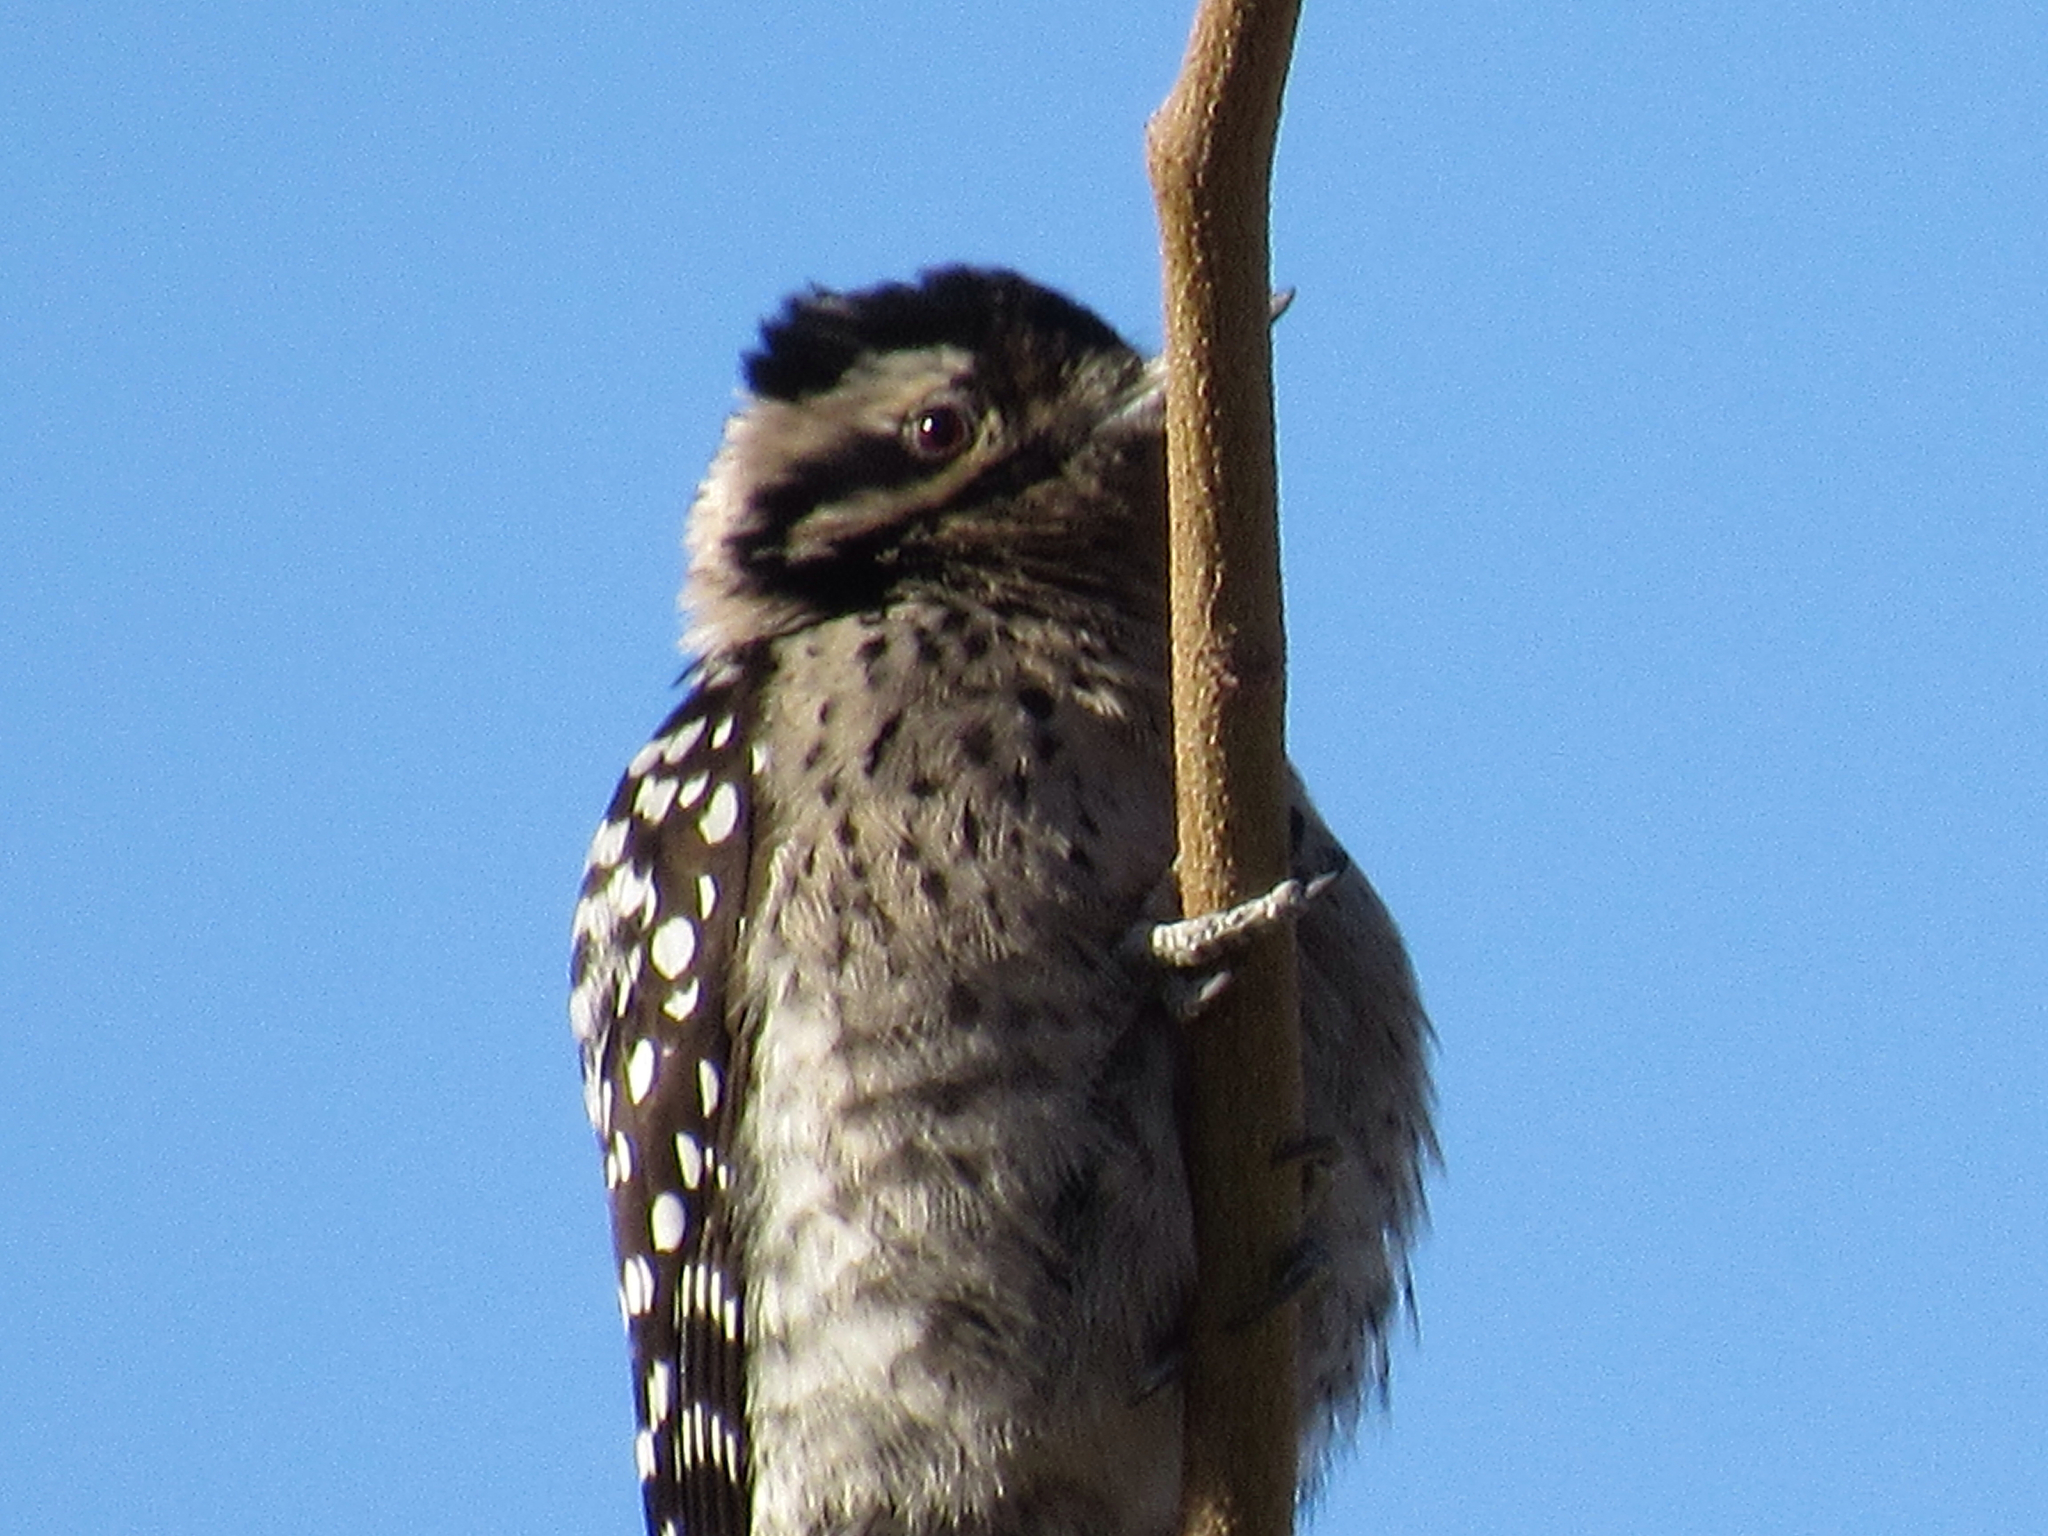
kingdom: Animalia
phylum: Chordata
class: Aves
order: Piciformes
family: Picidae
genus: Dryobates
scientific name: Dryobates scalaris
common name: Ladder-backed woodpecker
